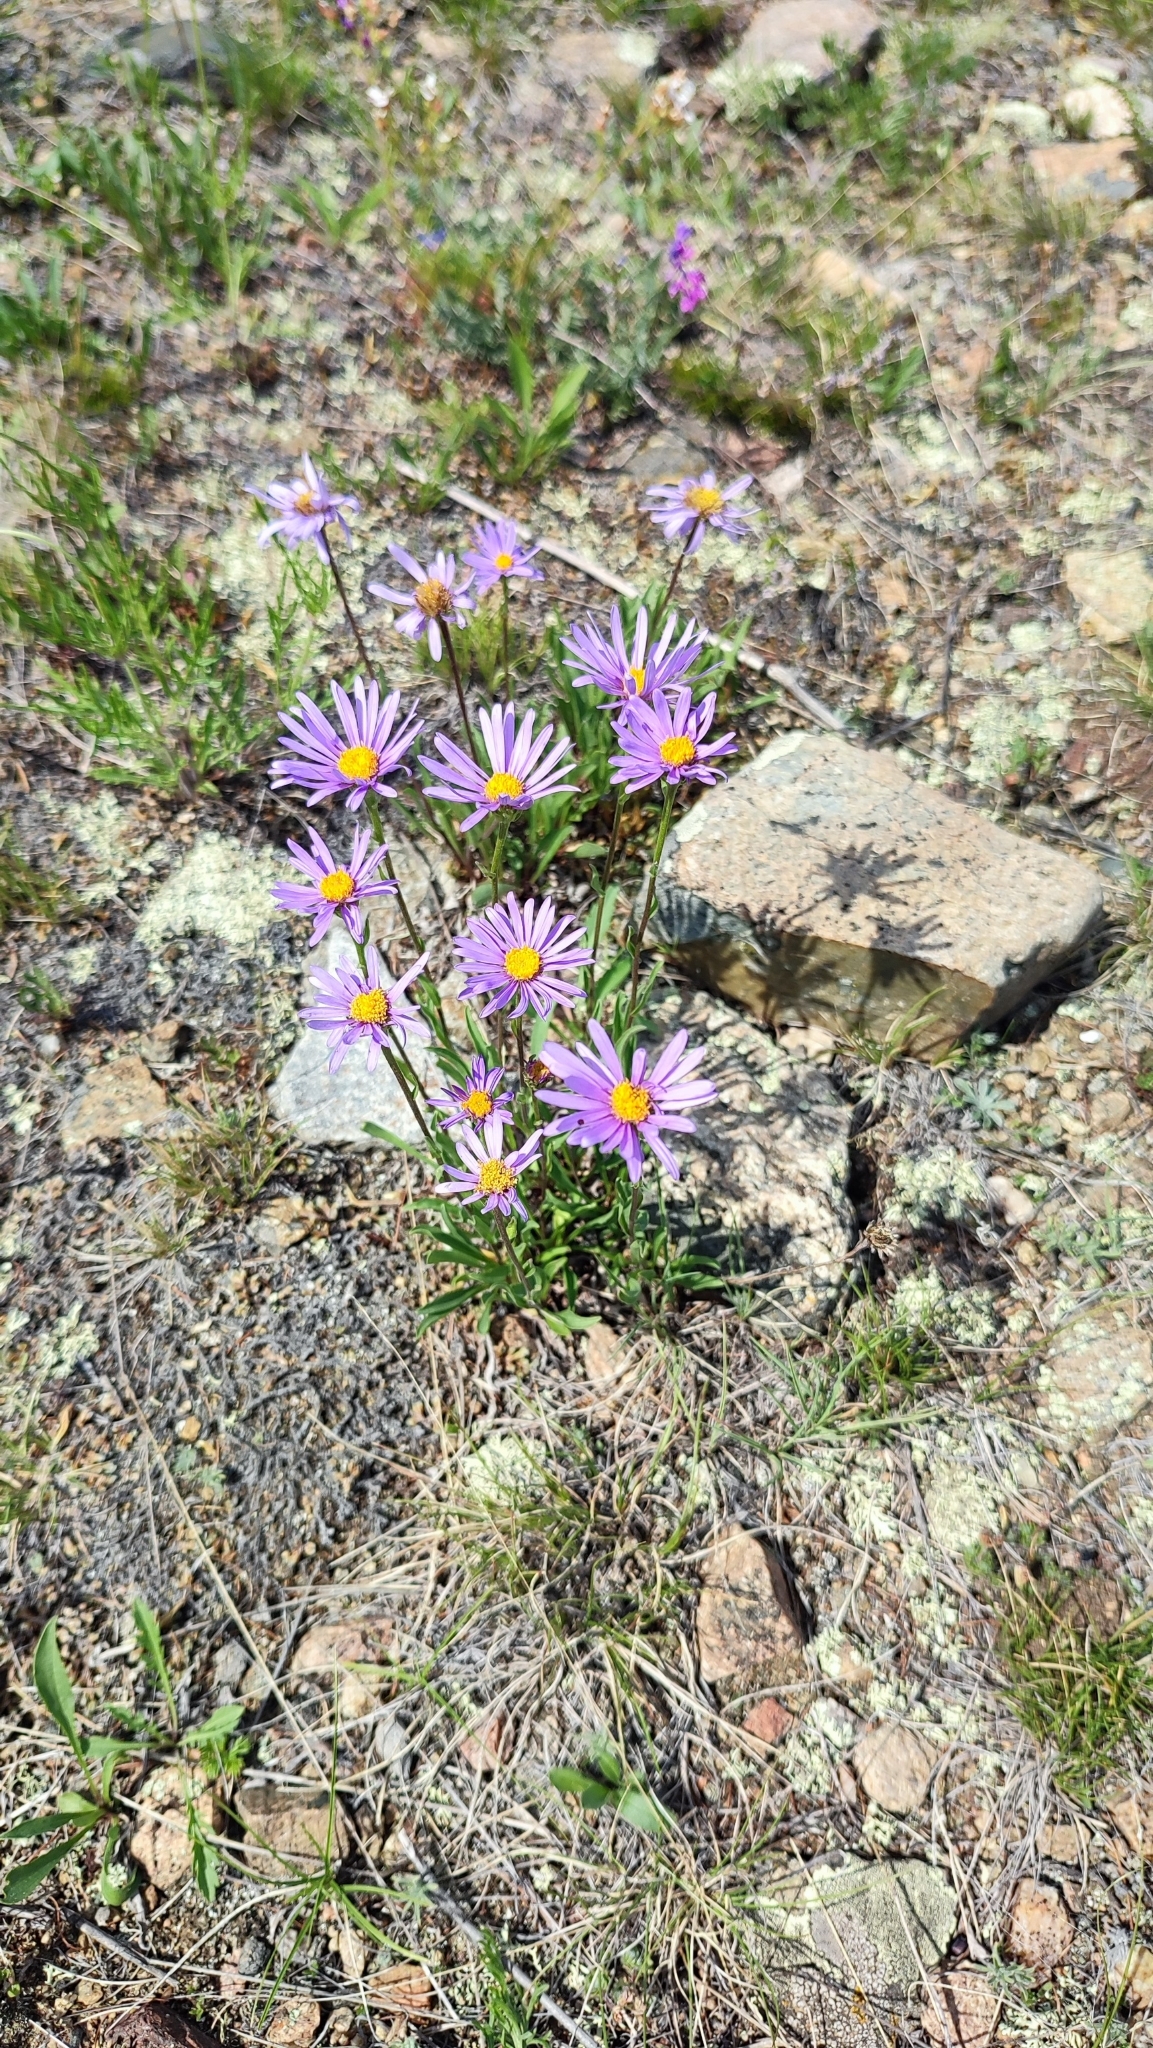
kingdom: Plantae
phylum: Tracheophyta
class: Magnoliopsida
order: Asterales
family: Asteraceae
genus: Aster
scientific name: Aster alpinus
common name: Alpine aster
